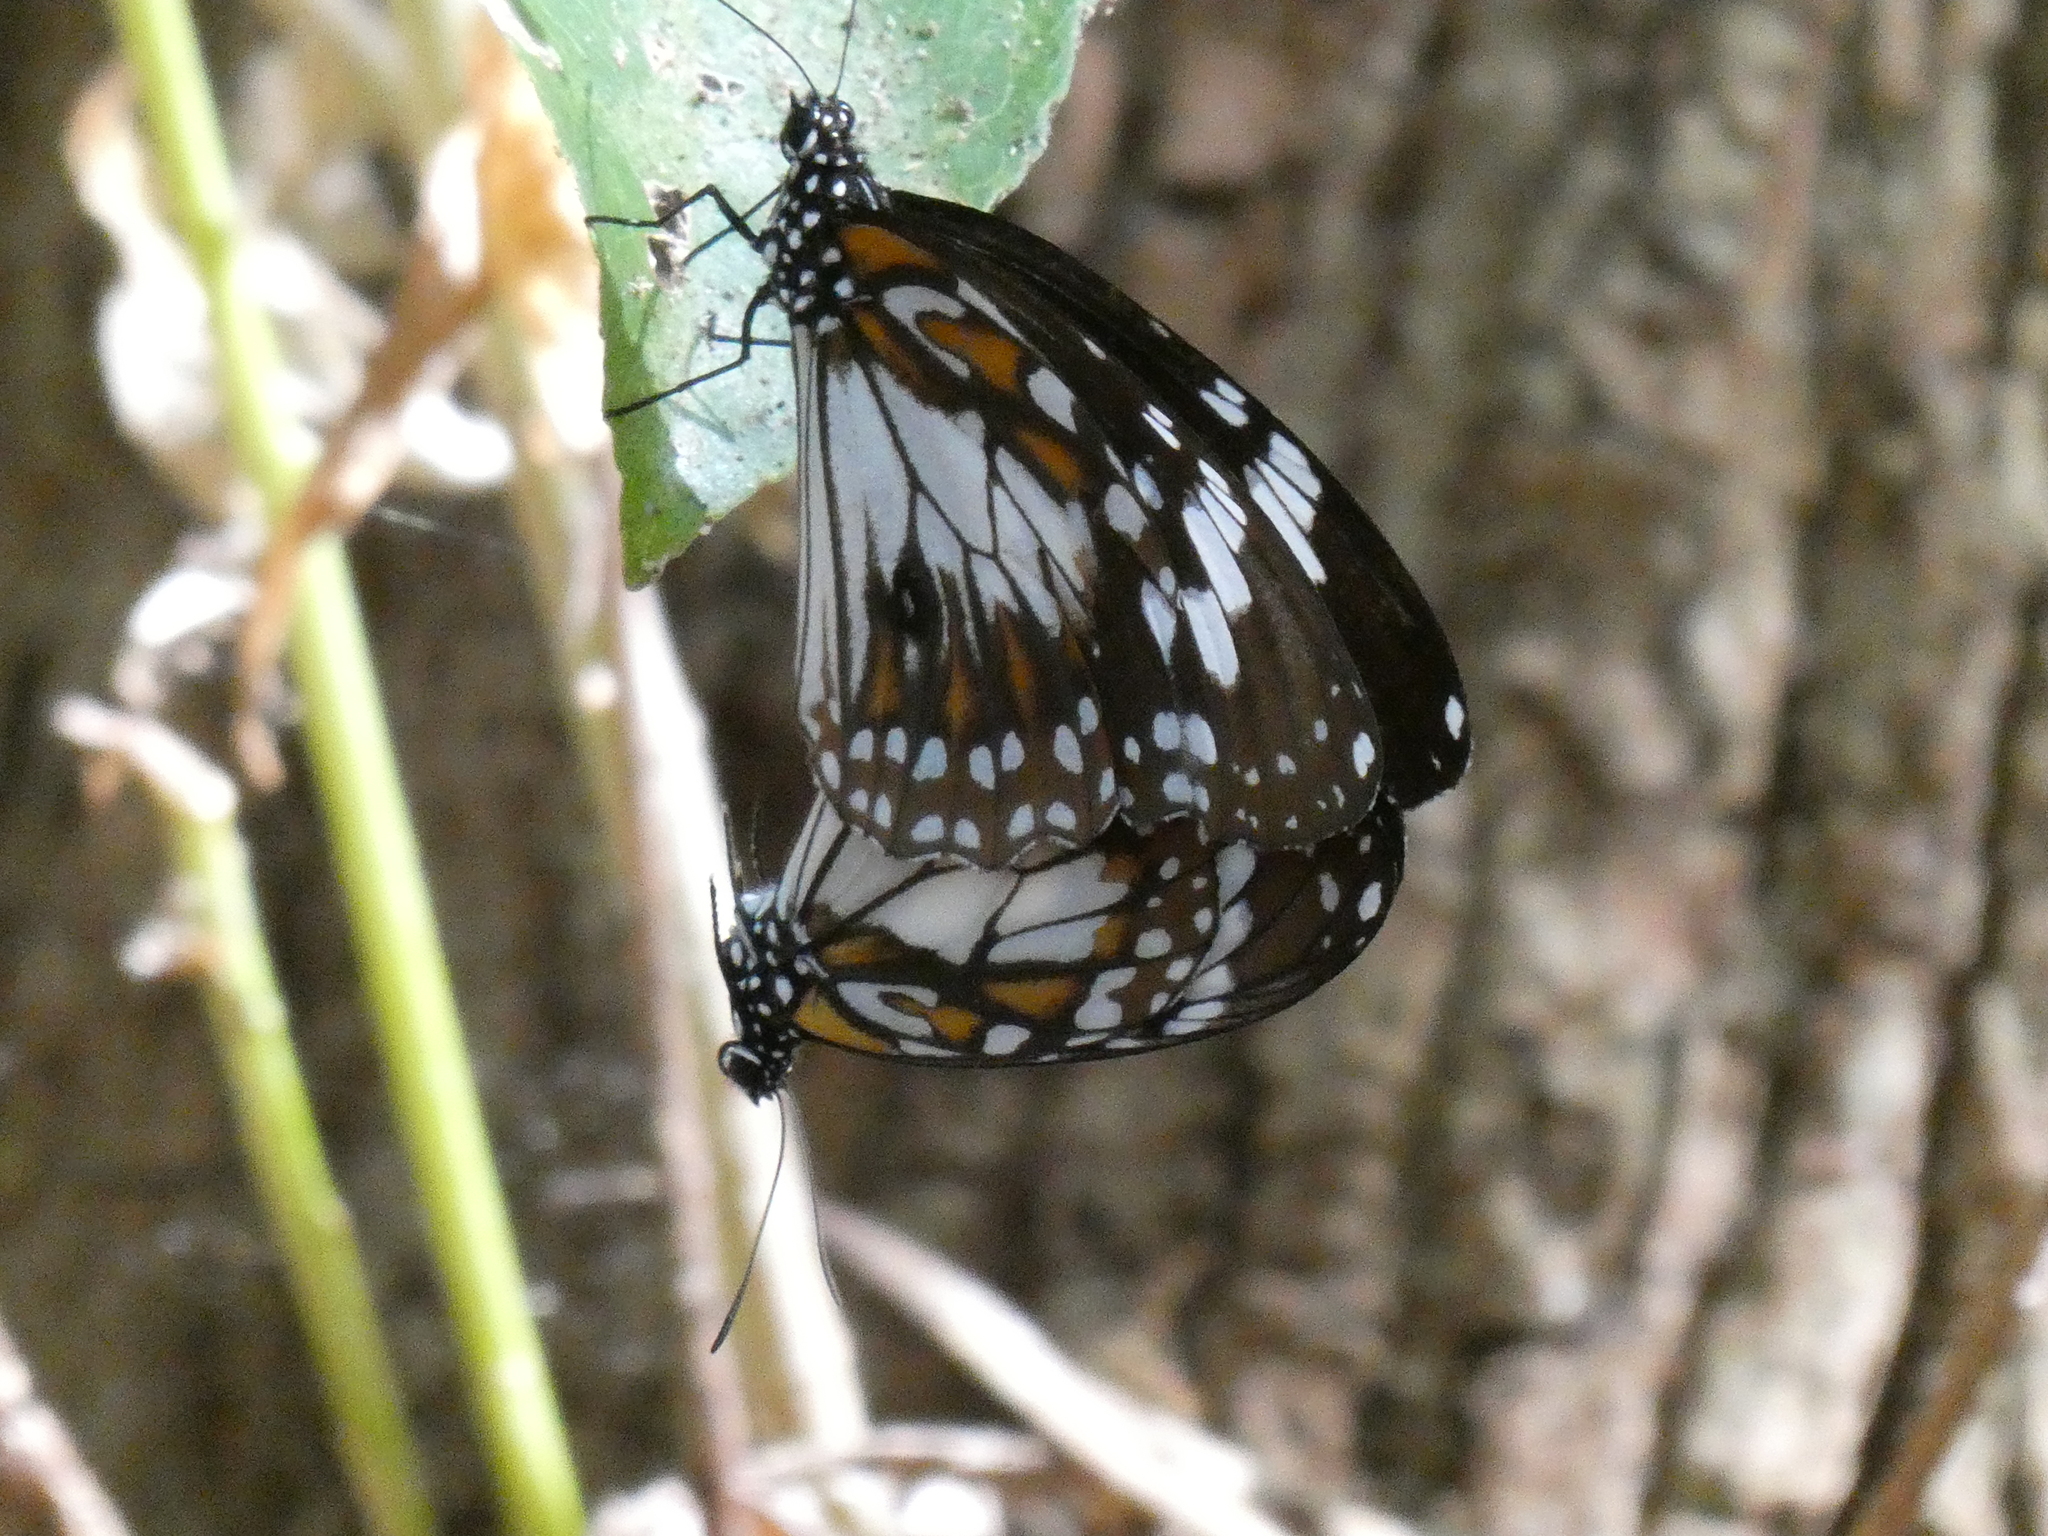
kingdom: Animalia
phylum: Arthropoda
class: Insecta
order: Lepidoptera
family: Nymphalidae
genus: Danaus
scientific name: Danaus affinis
